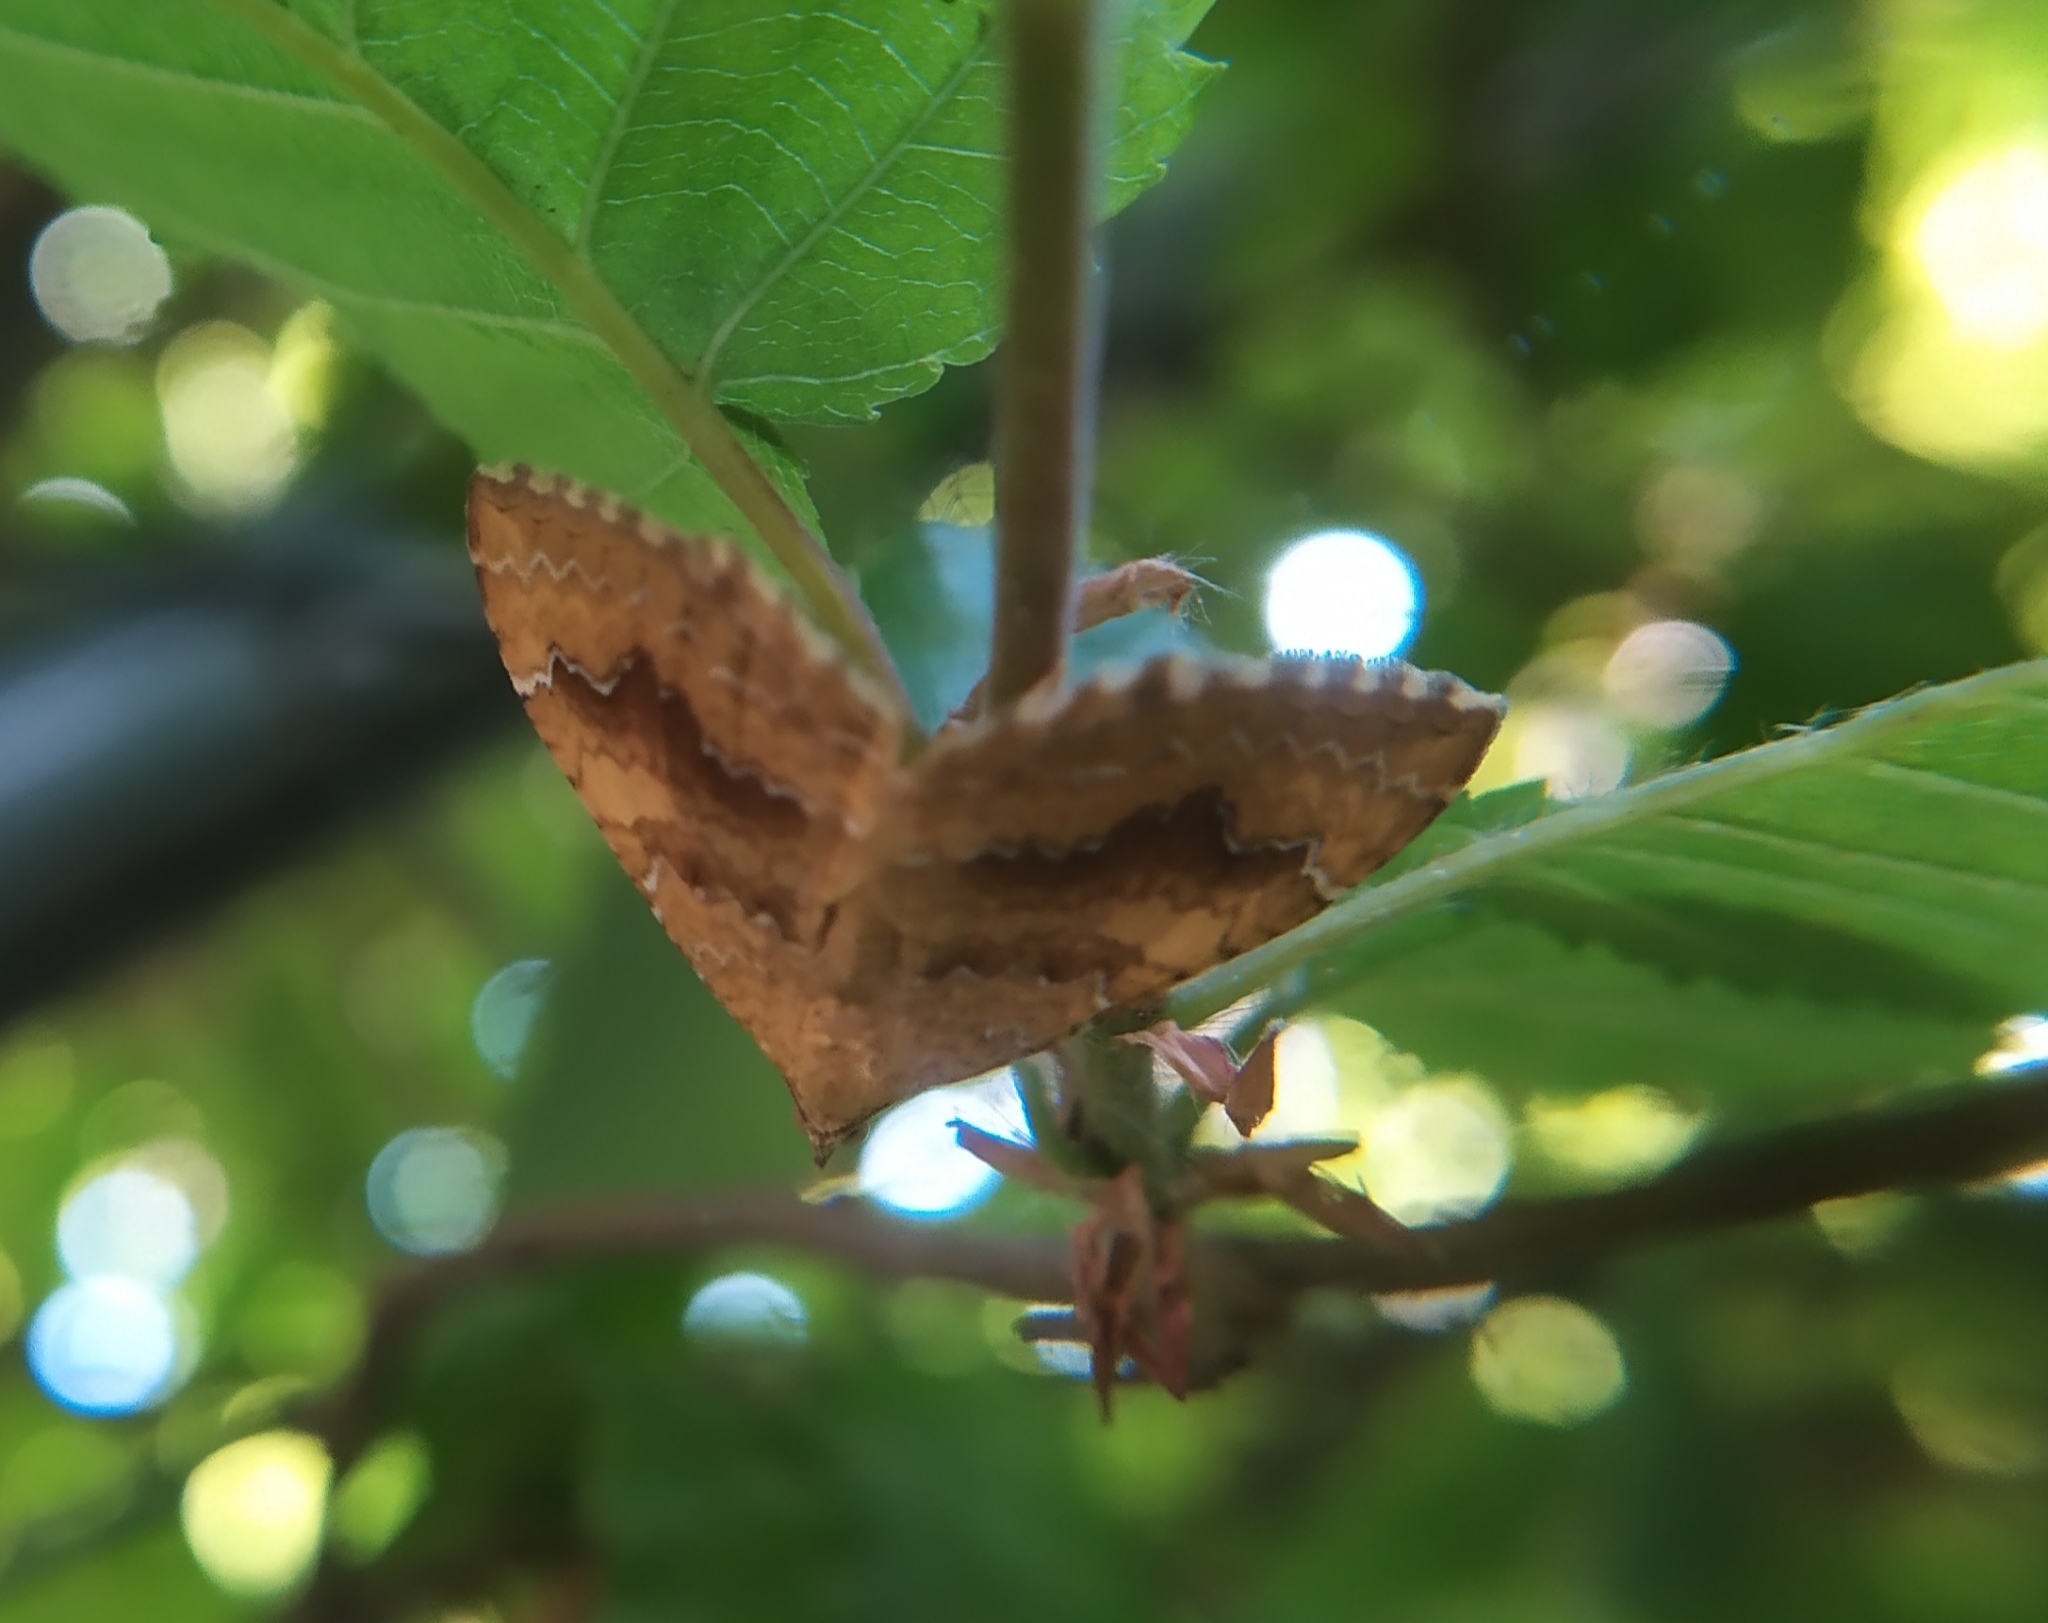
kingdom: Animalia
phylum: Arthropoda
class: Insecta
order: Lepidoptera
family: Geometridae
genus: Camptogramma
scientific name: Camptogramma bilineata
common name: Yellow shell
